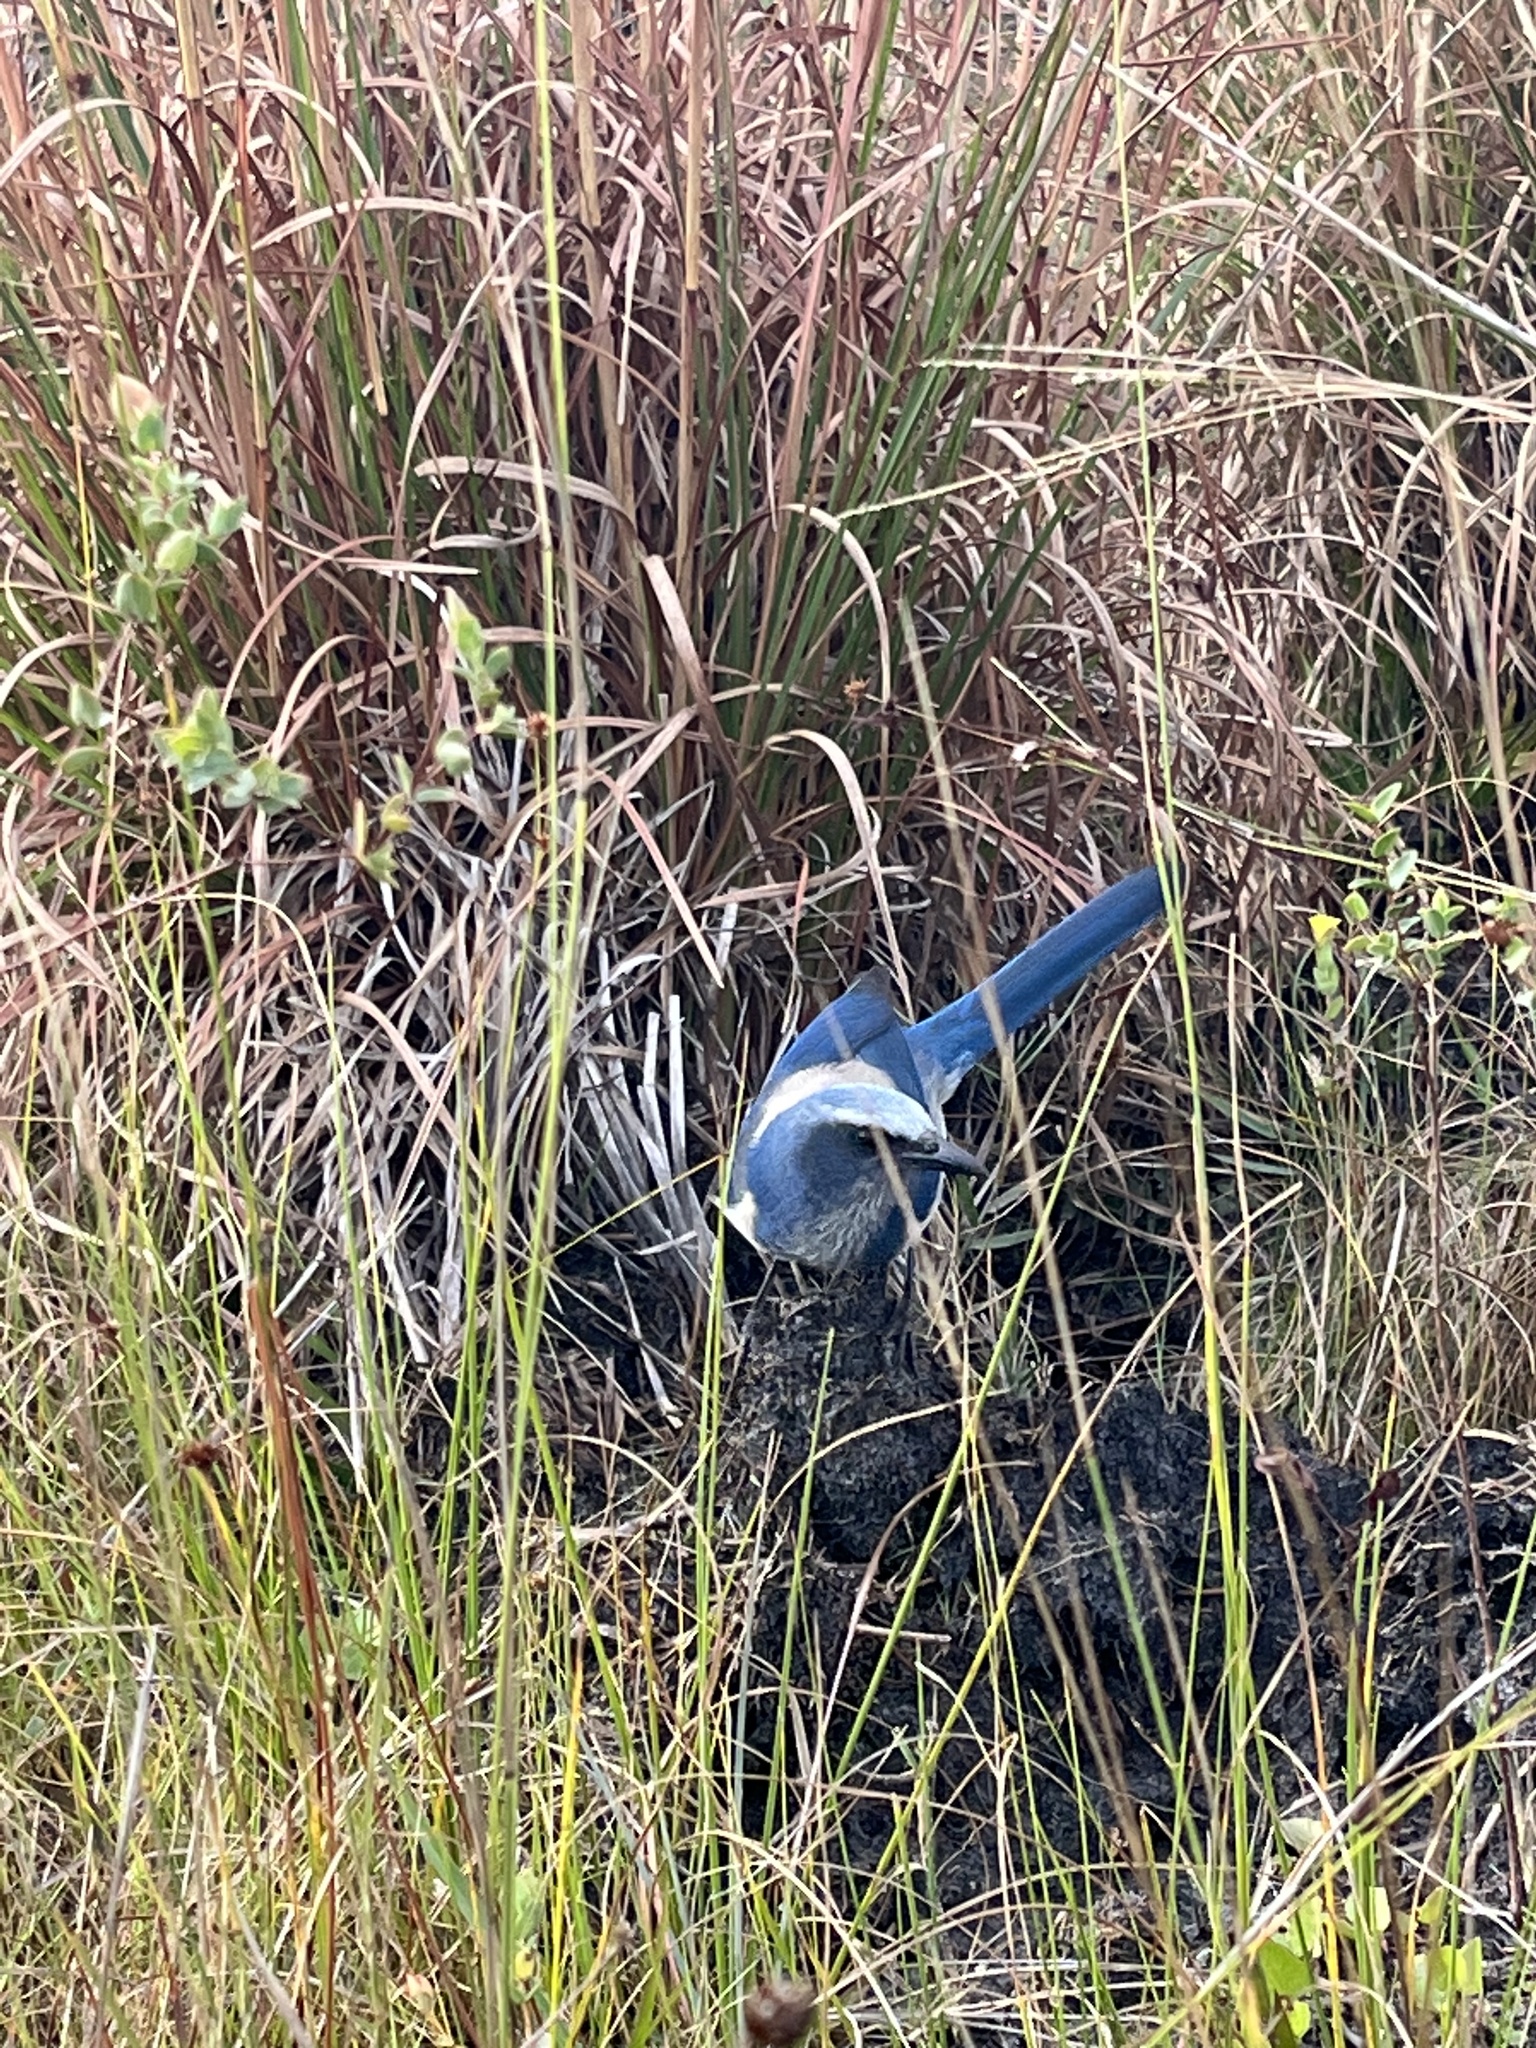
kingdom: Animalia
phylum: Chordata
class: Aves
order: Passeriformes
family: Corvidae
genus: Aphelocoma
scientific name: Aphelocoma coerulescens
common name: Florida scrub jay
